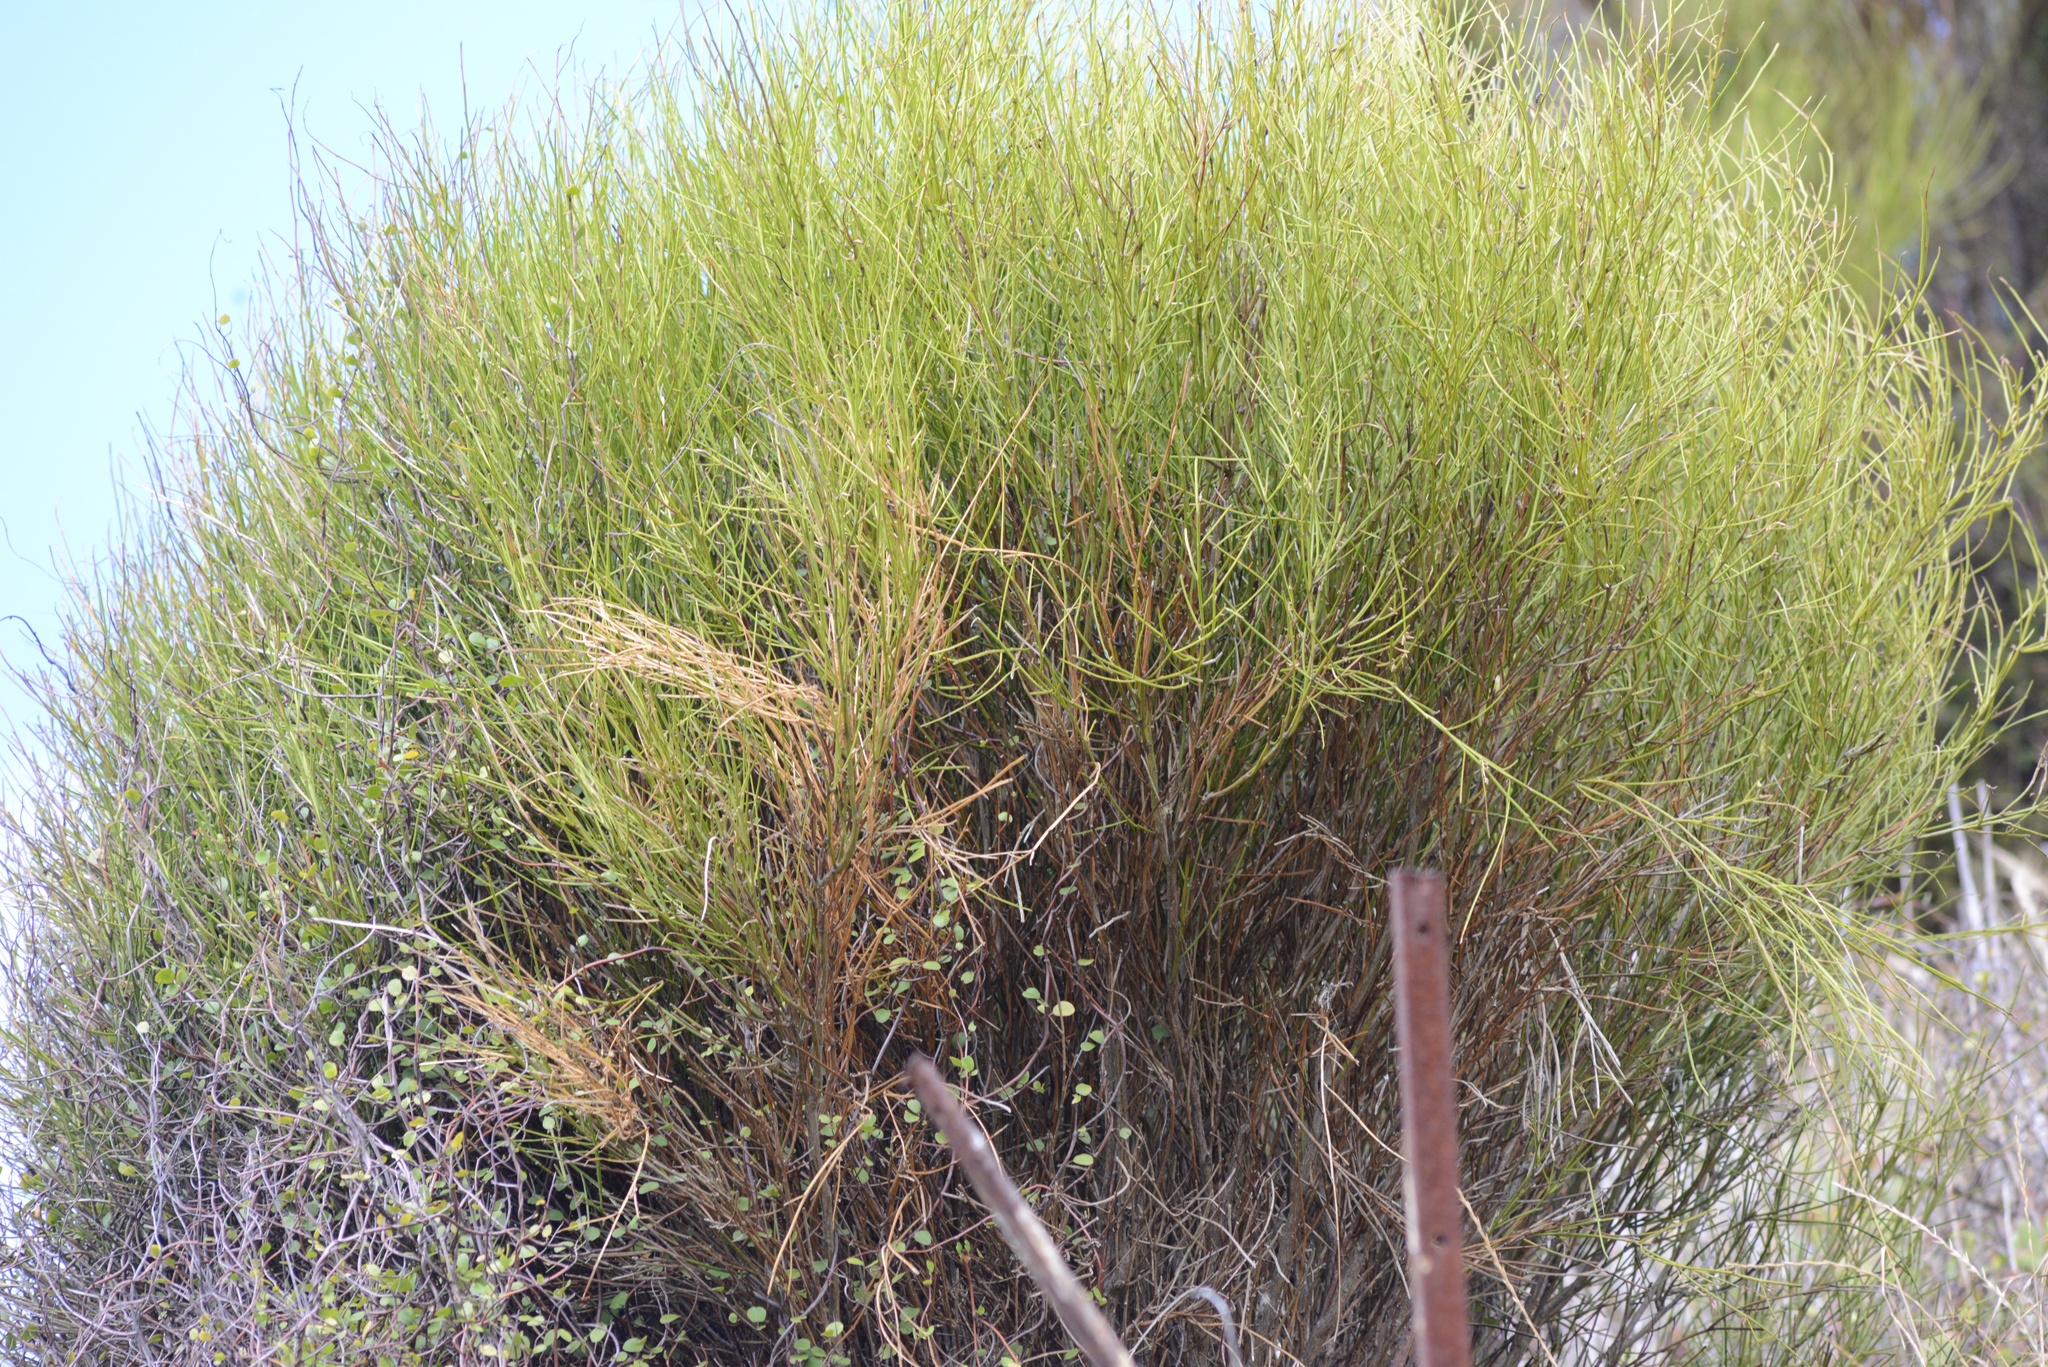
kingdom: Plantae
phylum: Tracheophyta
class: Magnoliopsida
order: Fabales
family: Fabaceae
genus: Carmichaelia
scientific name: Carmichaelia australis
